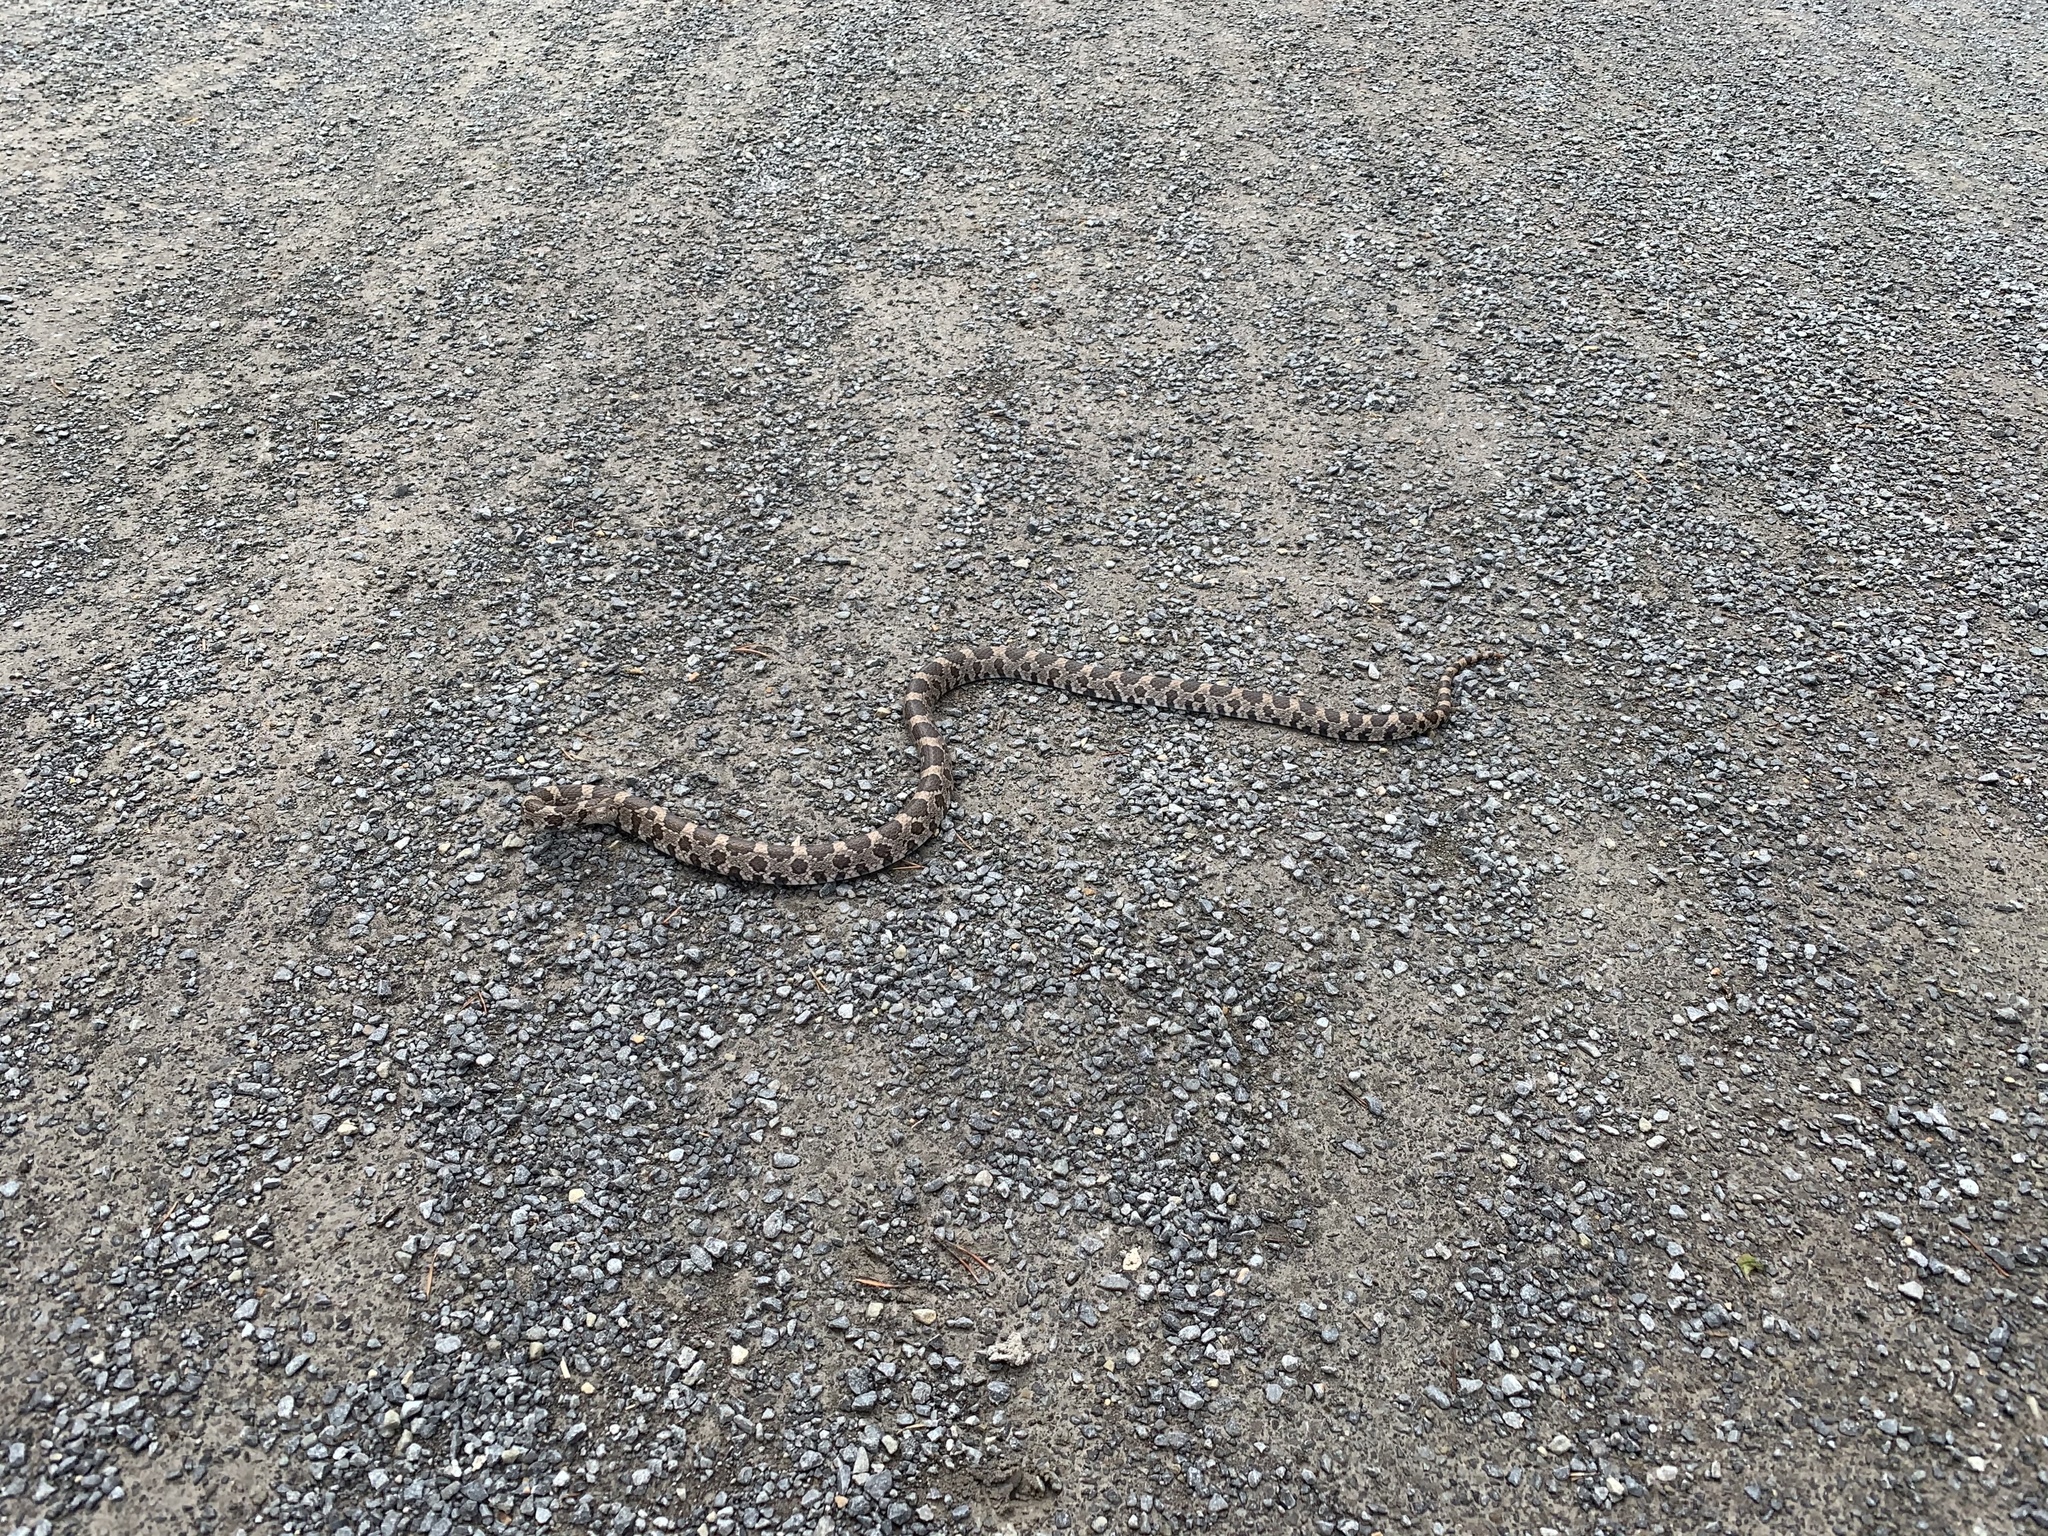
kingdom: Animalia
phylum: Chordata
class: Squamata
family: Colubridae
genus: Lampropeltis
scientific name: Lampropeltis triangulum
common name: Eastern milksnake
